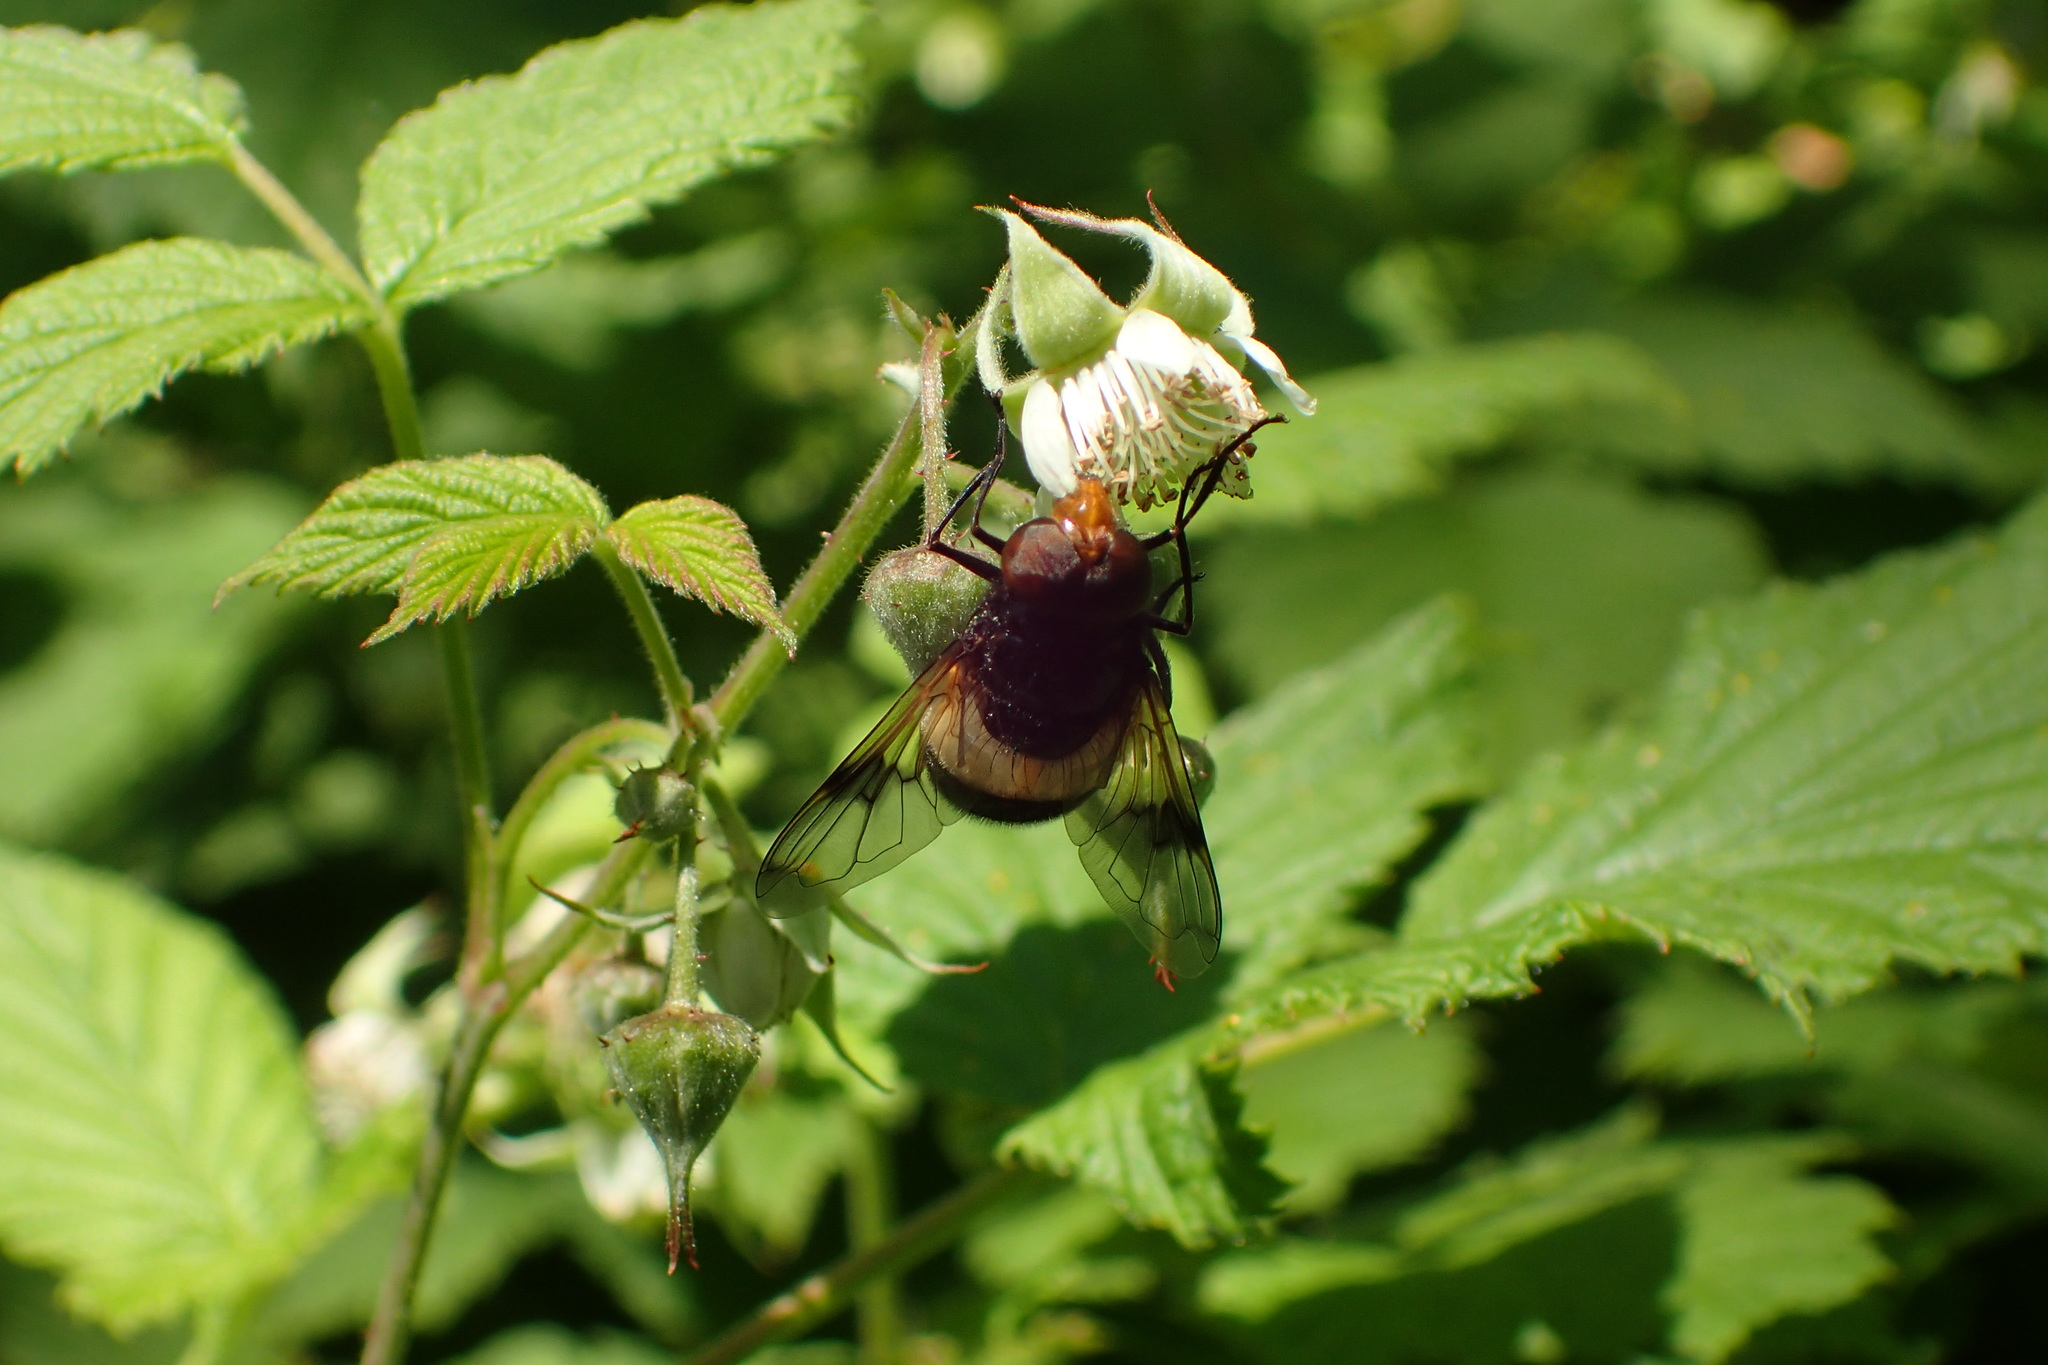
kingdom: Animalia
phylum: Arthropoda
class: Insecta
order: Diptera
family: Syrphidae
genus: Volucella
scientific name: Volucella pellucens
